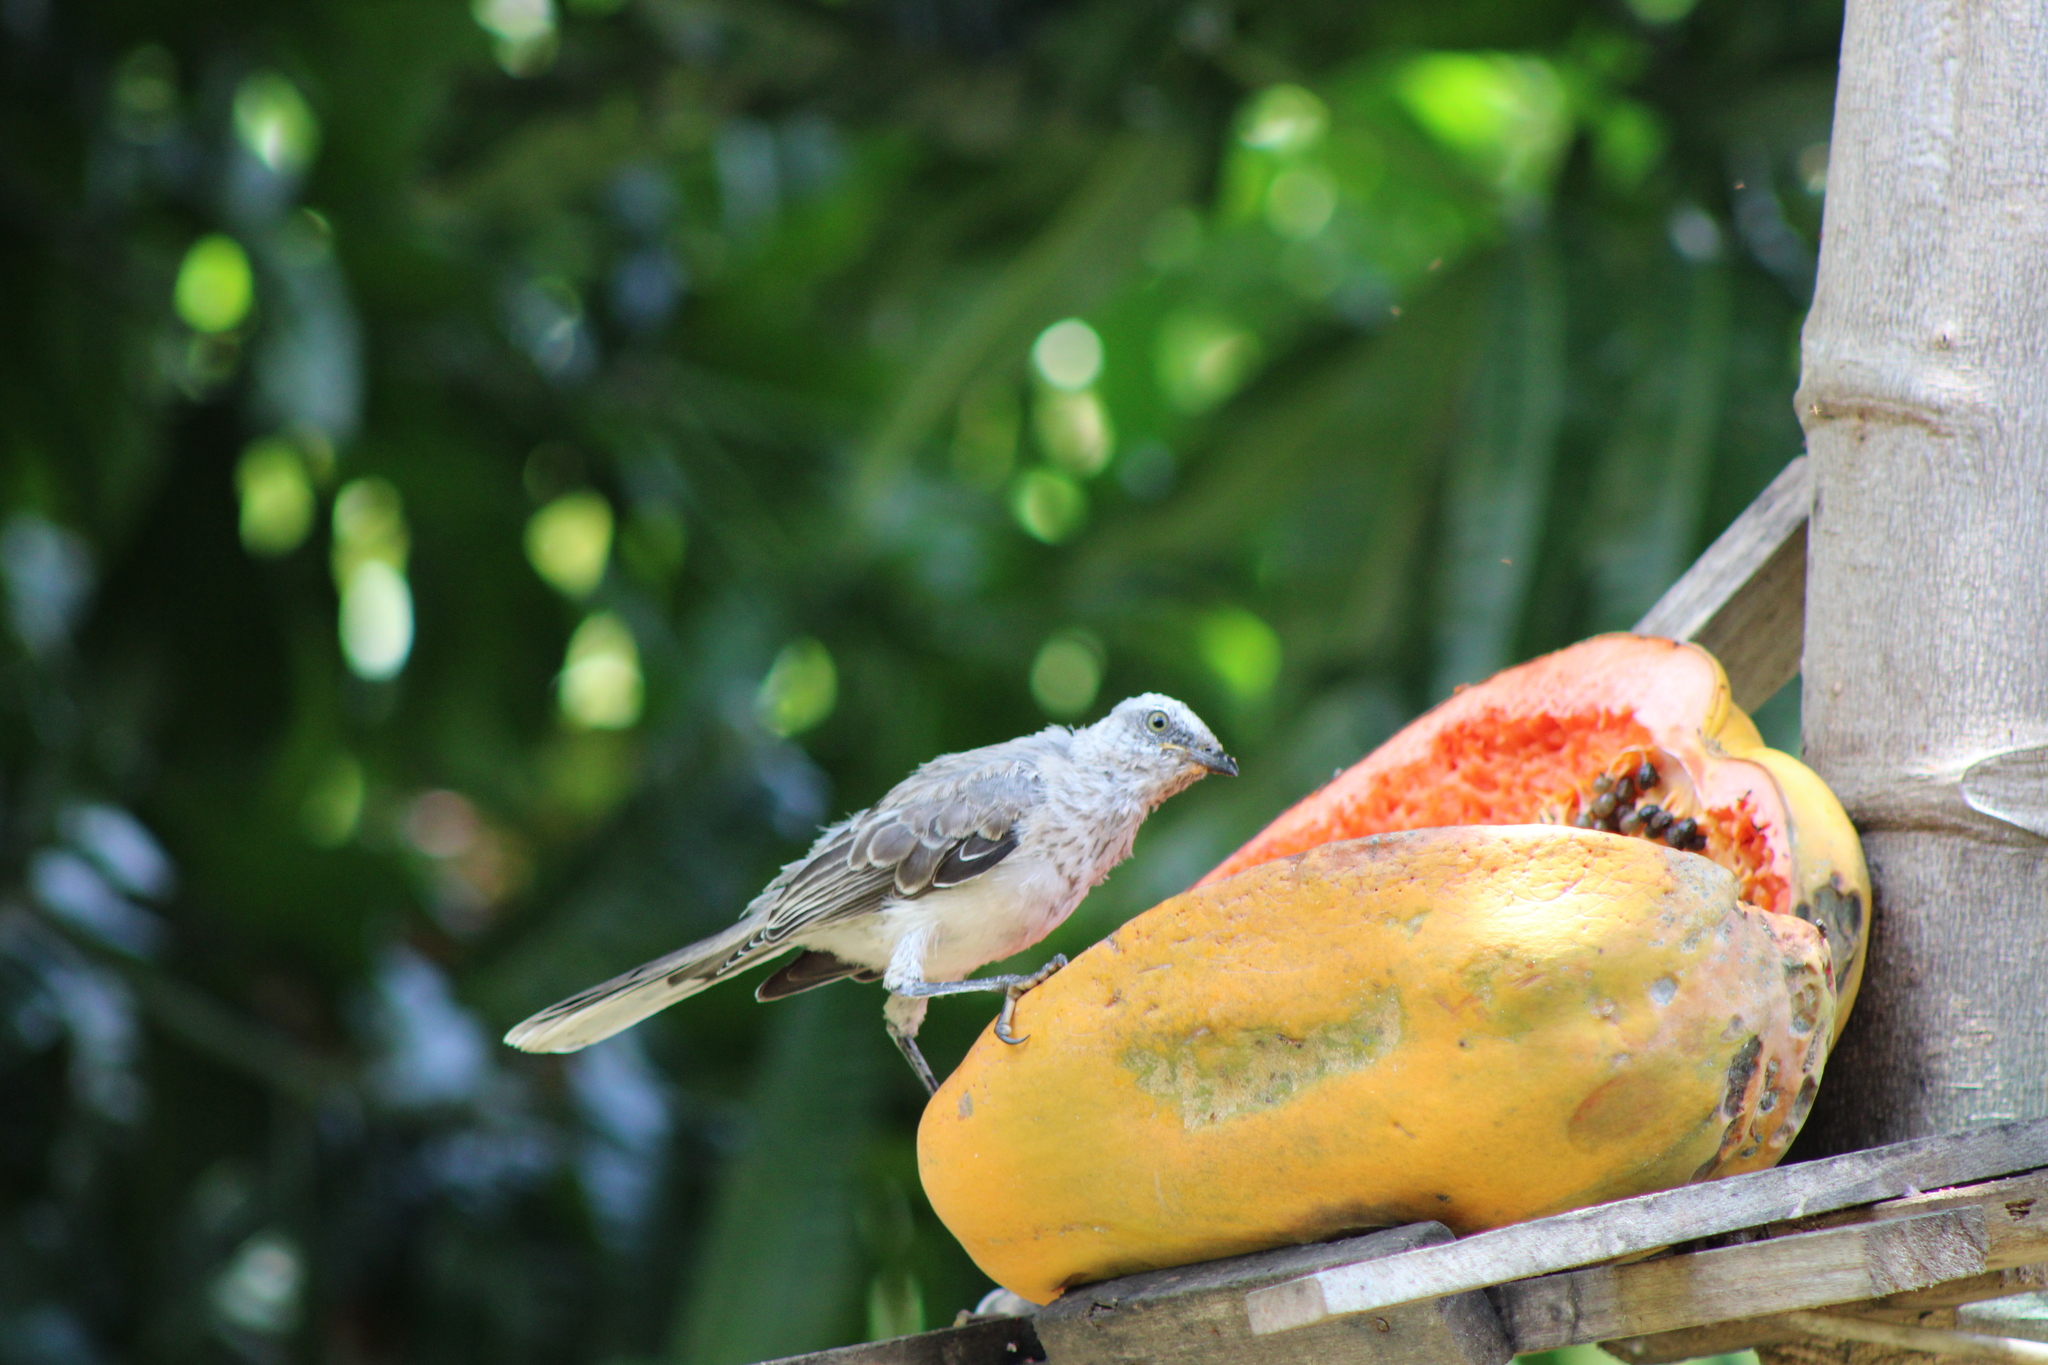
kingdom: Animalia
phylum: Chordata
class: Aves
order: Passeriformes
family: Mimidae
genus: Mimus
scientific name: Mimus gilvus
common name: Tropical mockingbird
